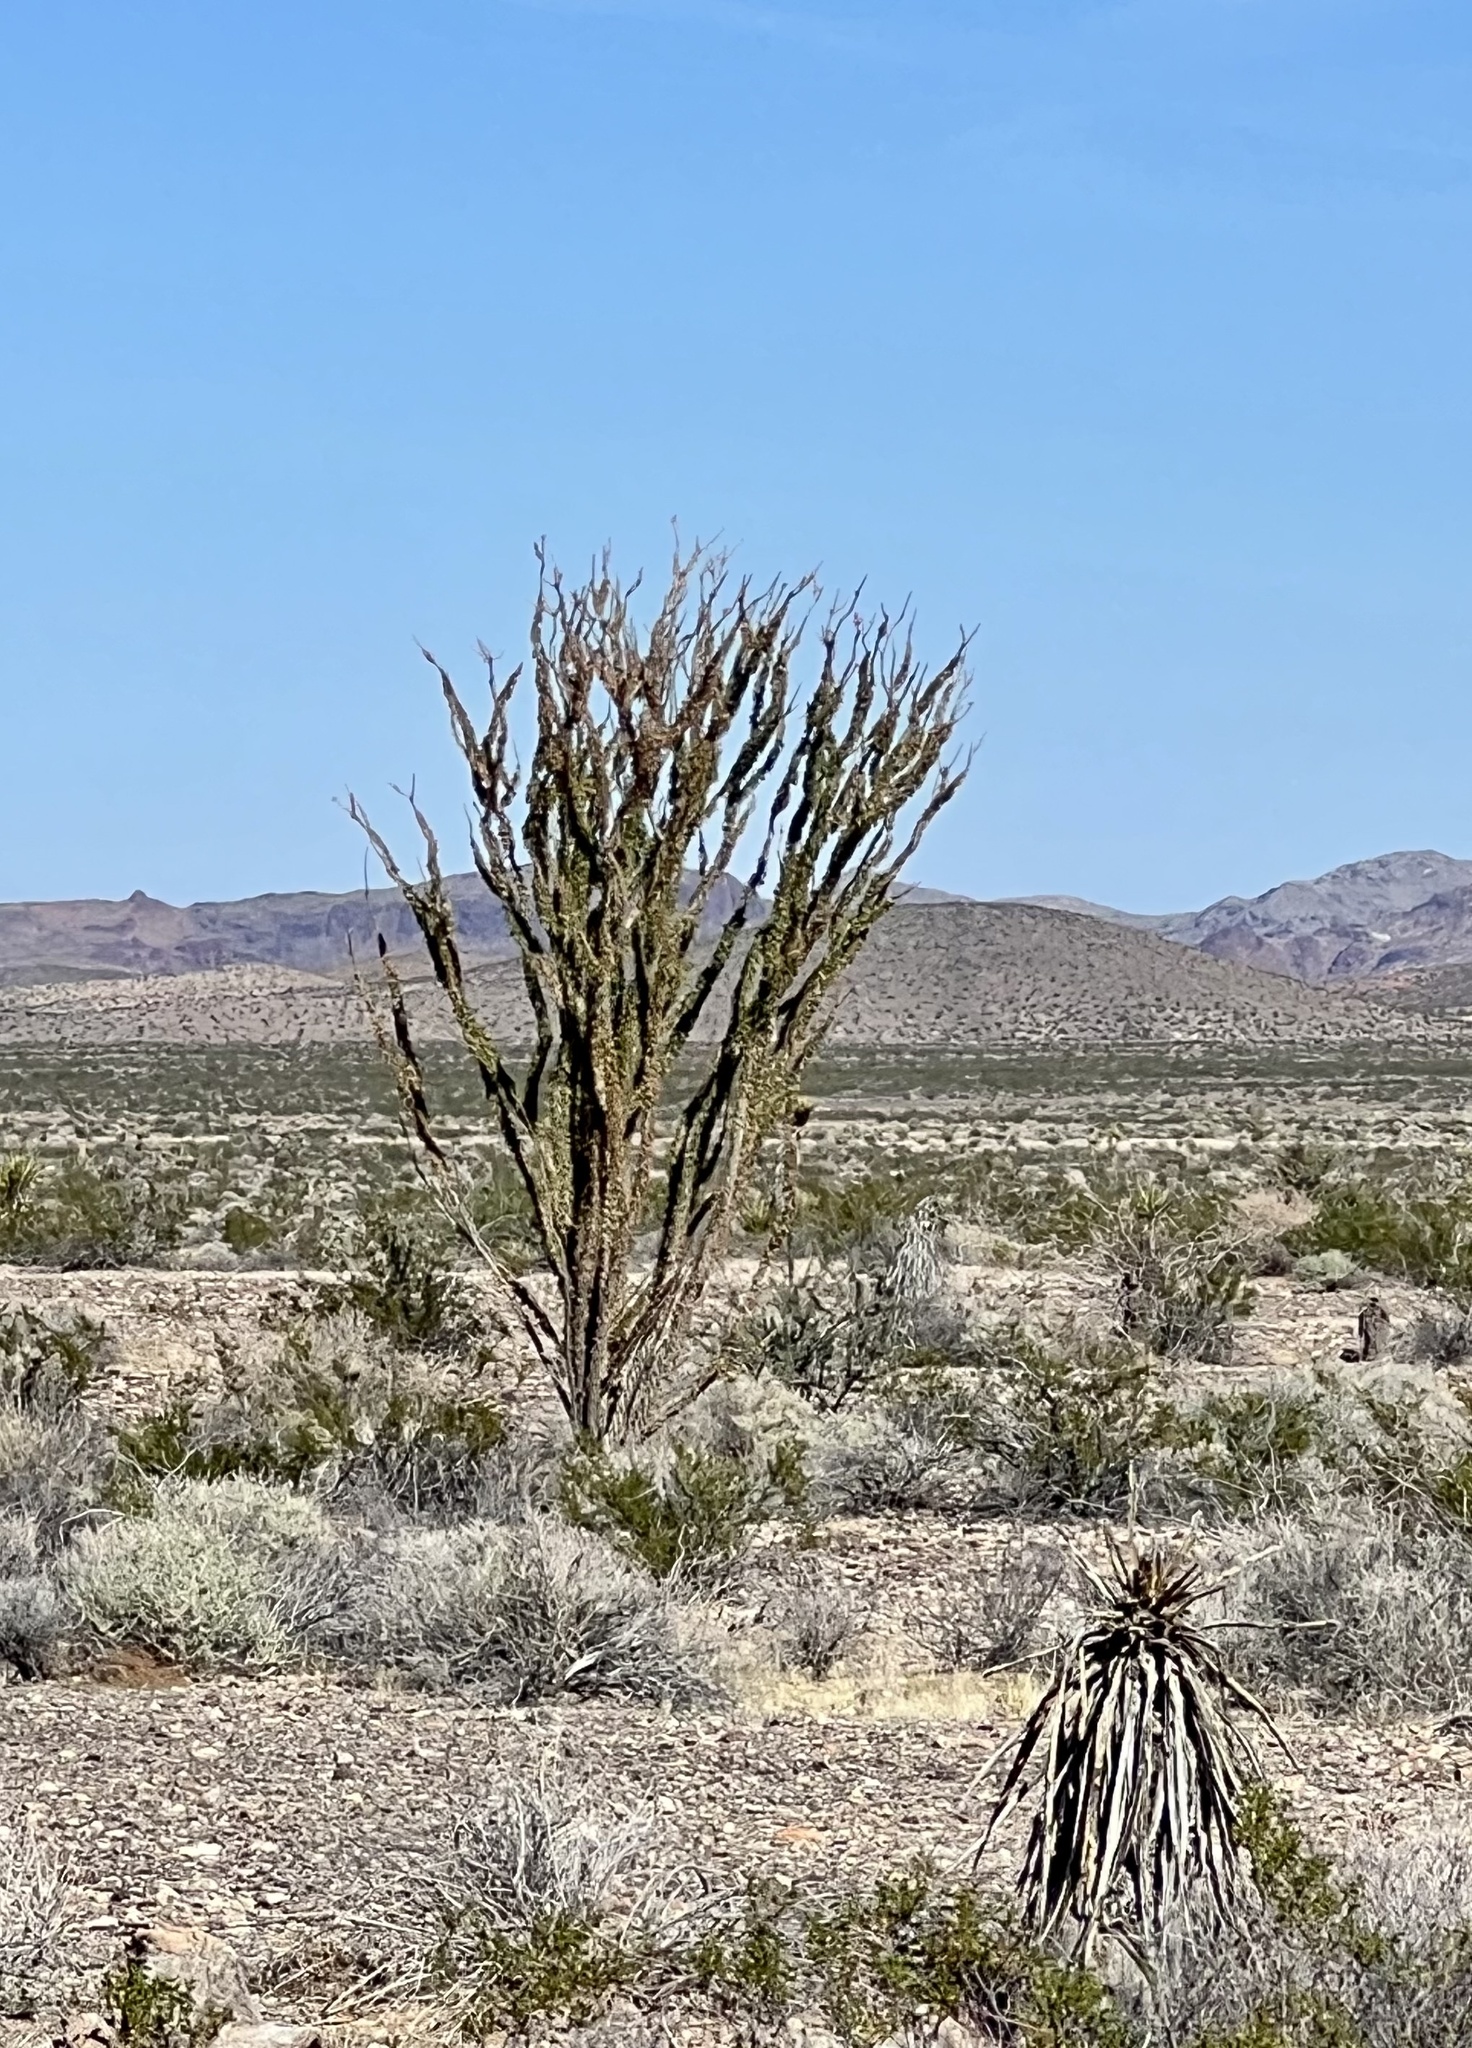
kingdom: Plantae
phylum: Tracheophyta
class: Magnoliopsida
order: Ericales
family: Fouquieriaceae
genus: Fouquieria
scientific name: Fouquieria splendens
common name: Vine-cactus
